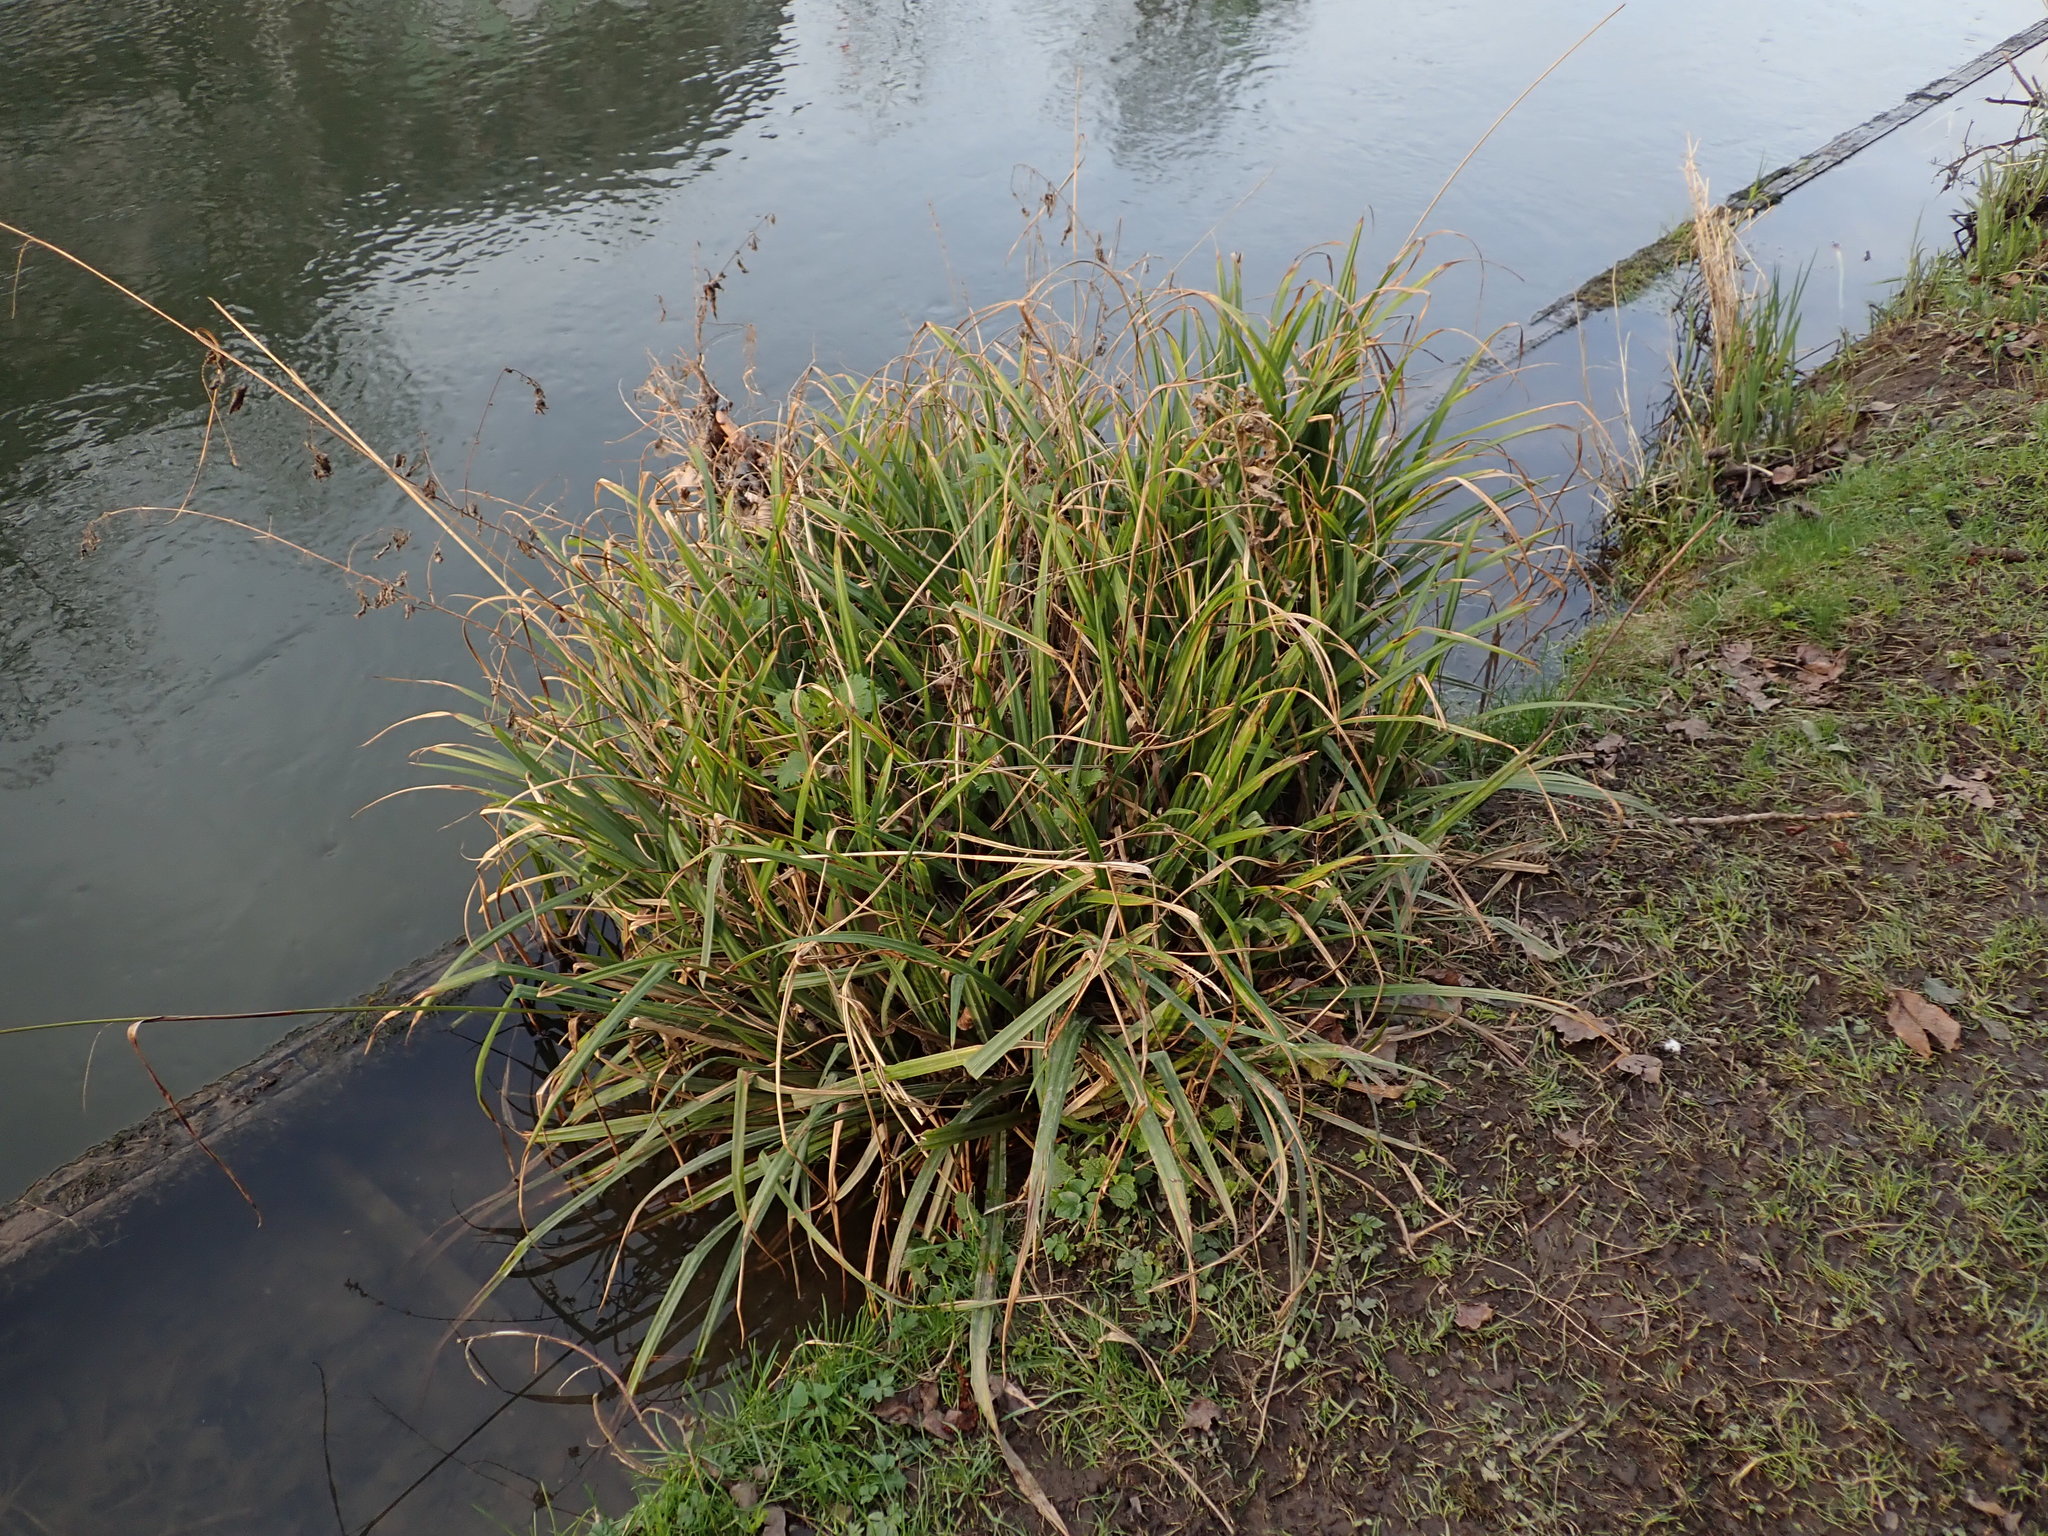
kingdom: Plantae
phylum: Tracheophyta
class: Liliopsida
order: Poales
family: Cyperaceae
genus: Carex
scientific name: Carex pendula
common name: Pendulous sedge
